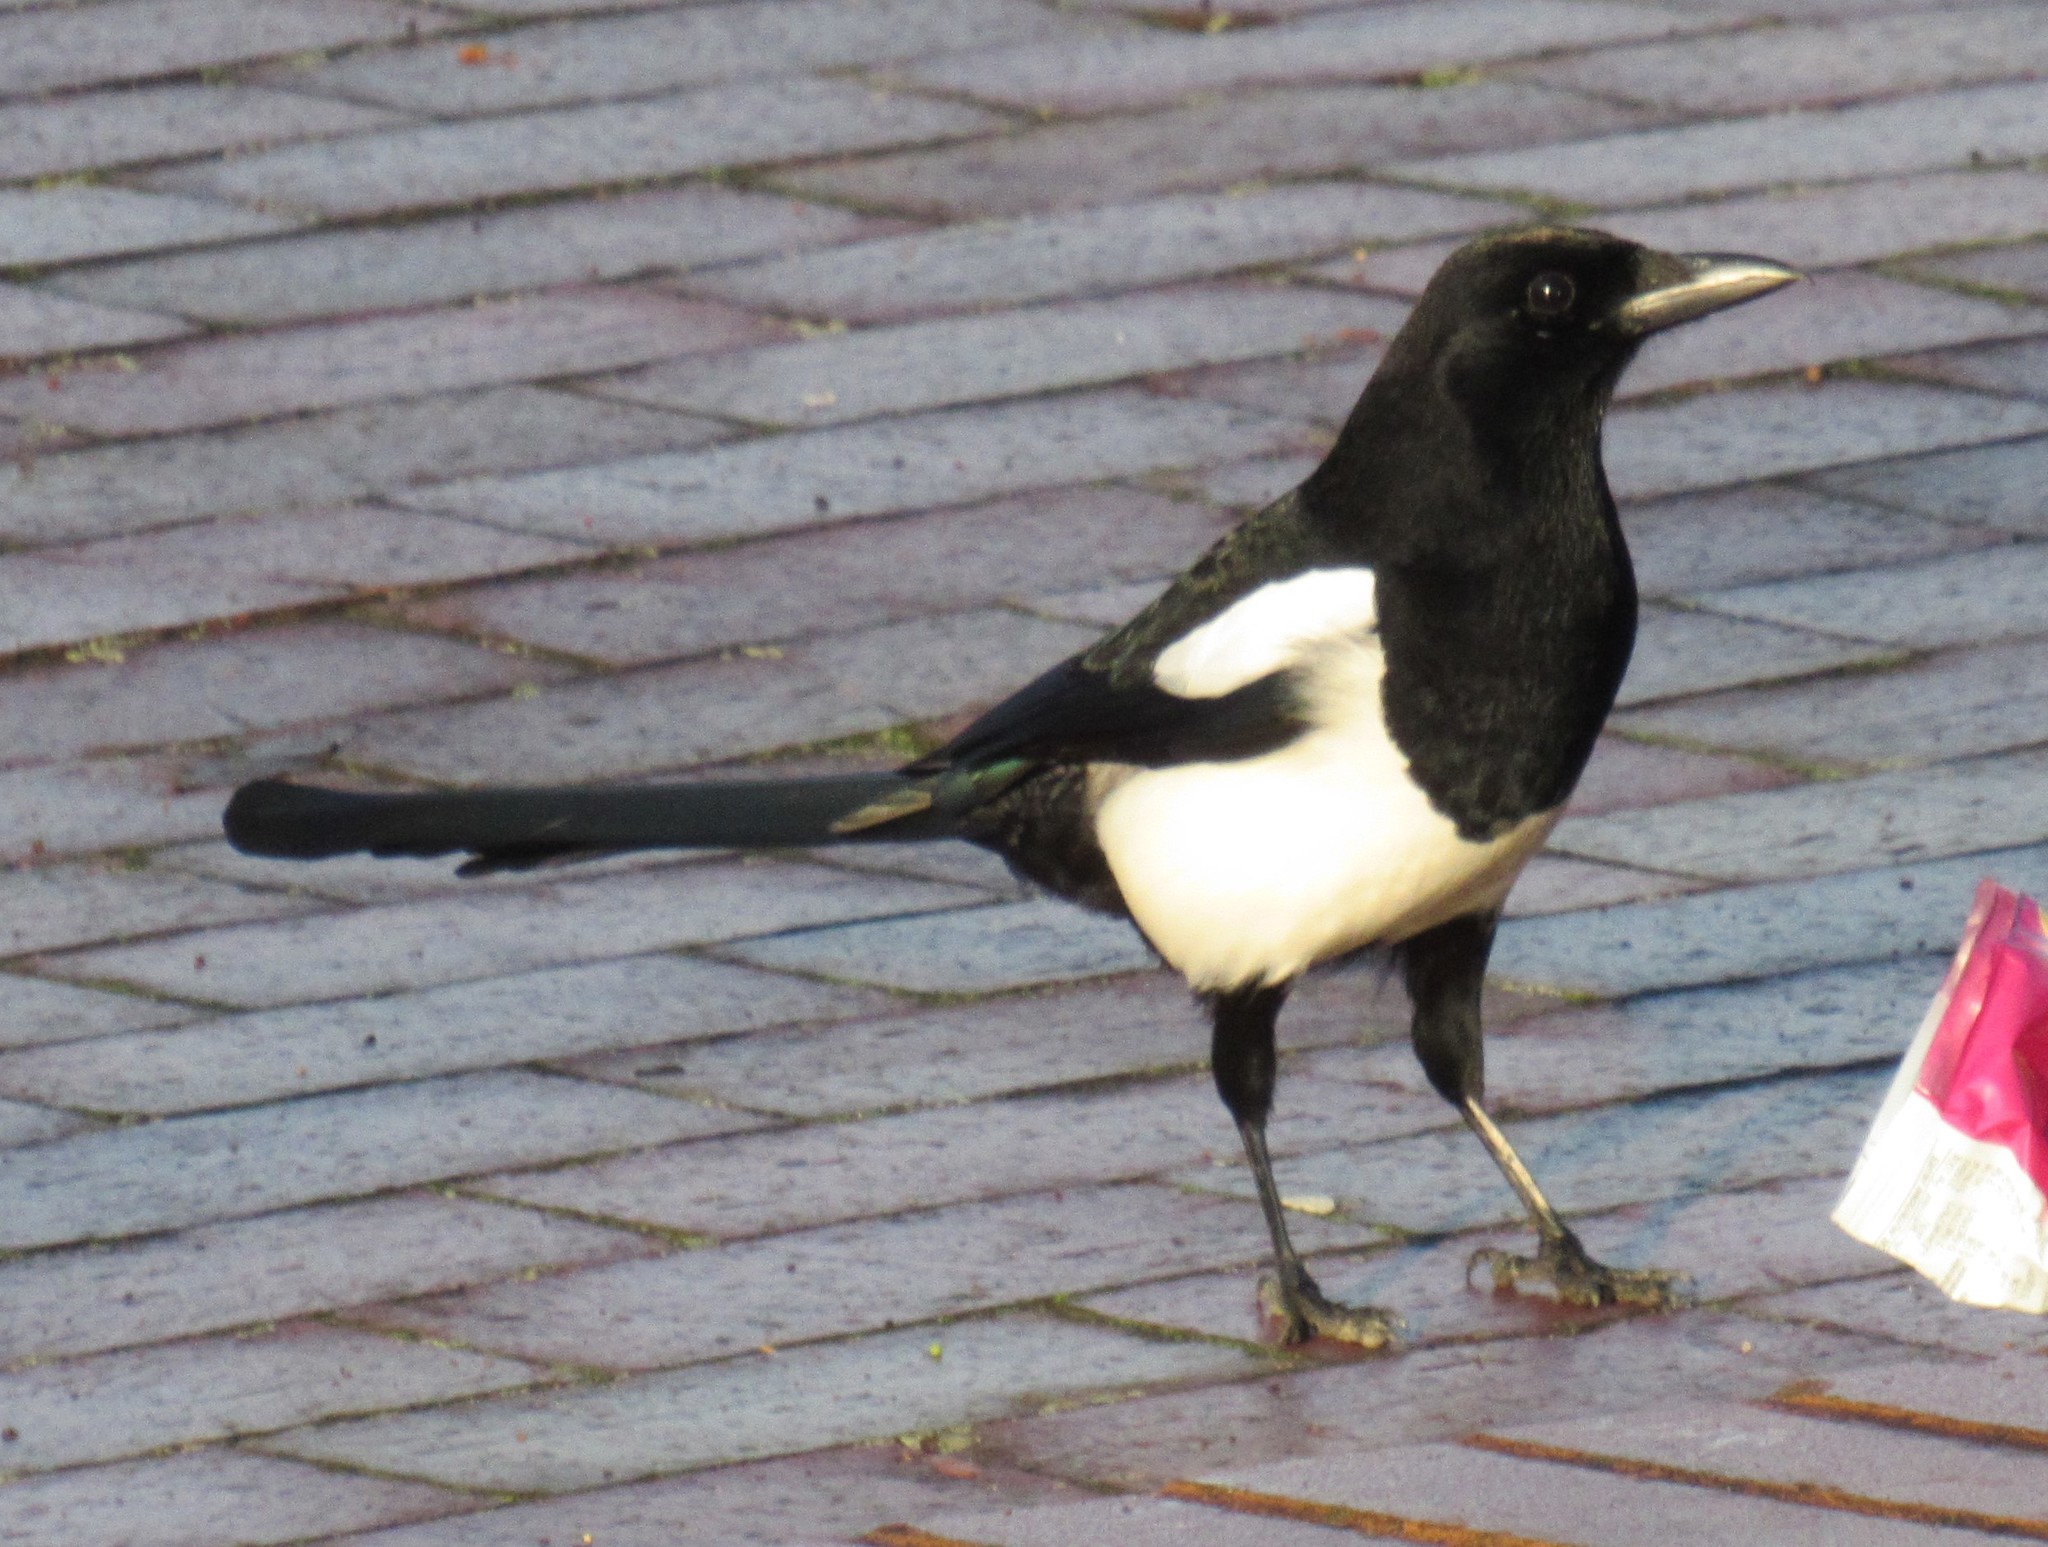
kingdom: Animalia
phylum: Chordata
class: Aves
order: Passeriformes
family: Corvidae
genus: Pica
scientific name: Pica pica
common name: Eurasian magpie
